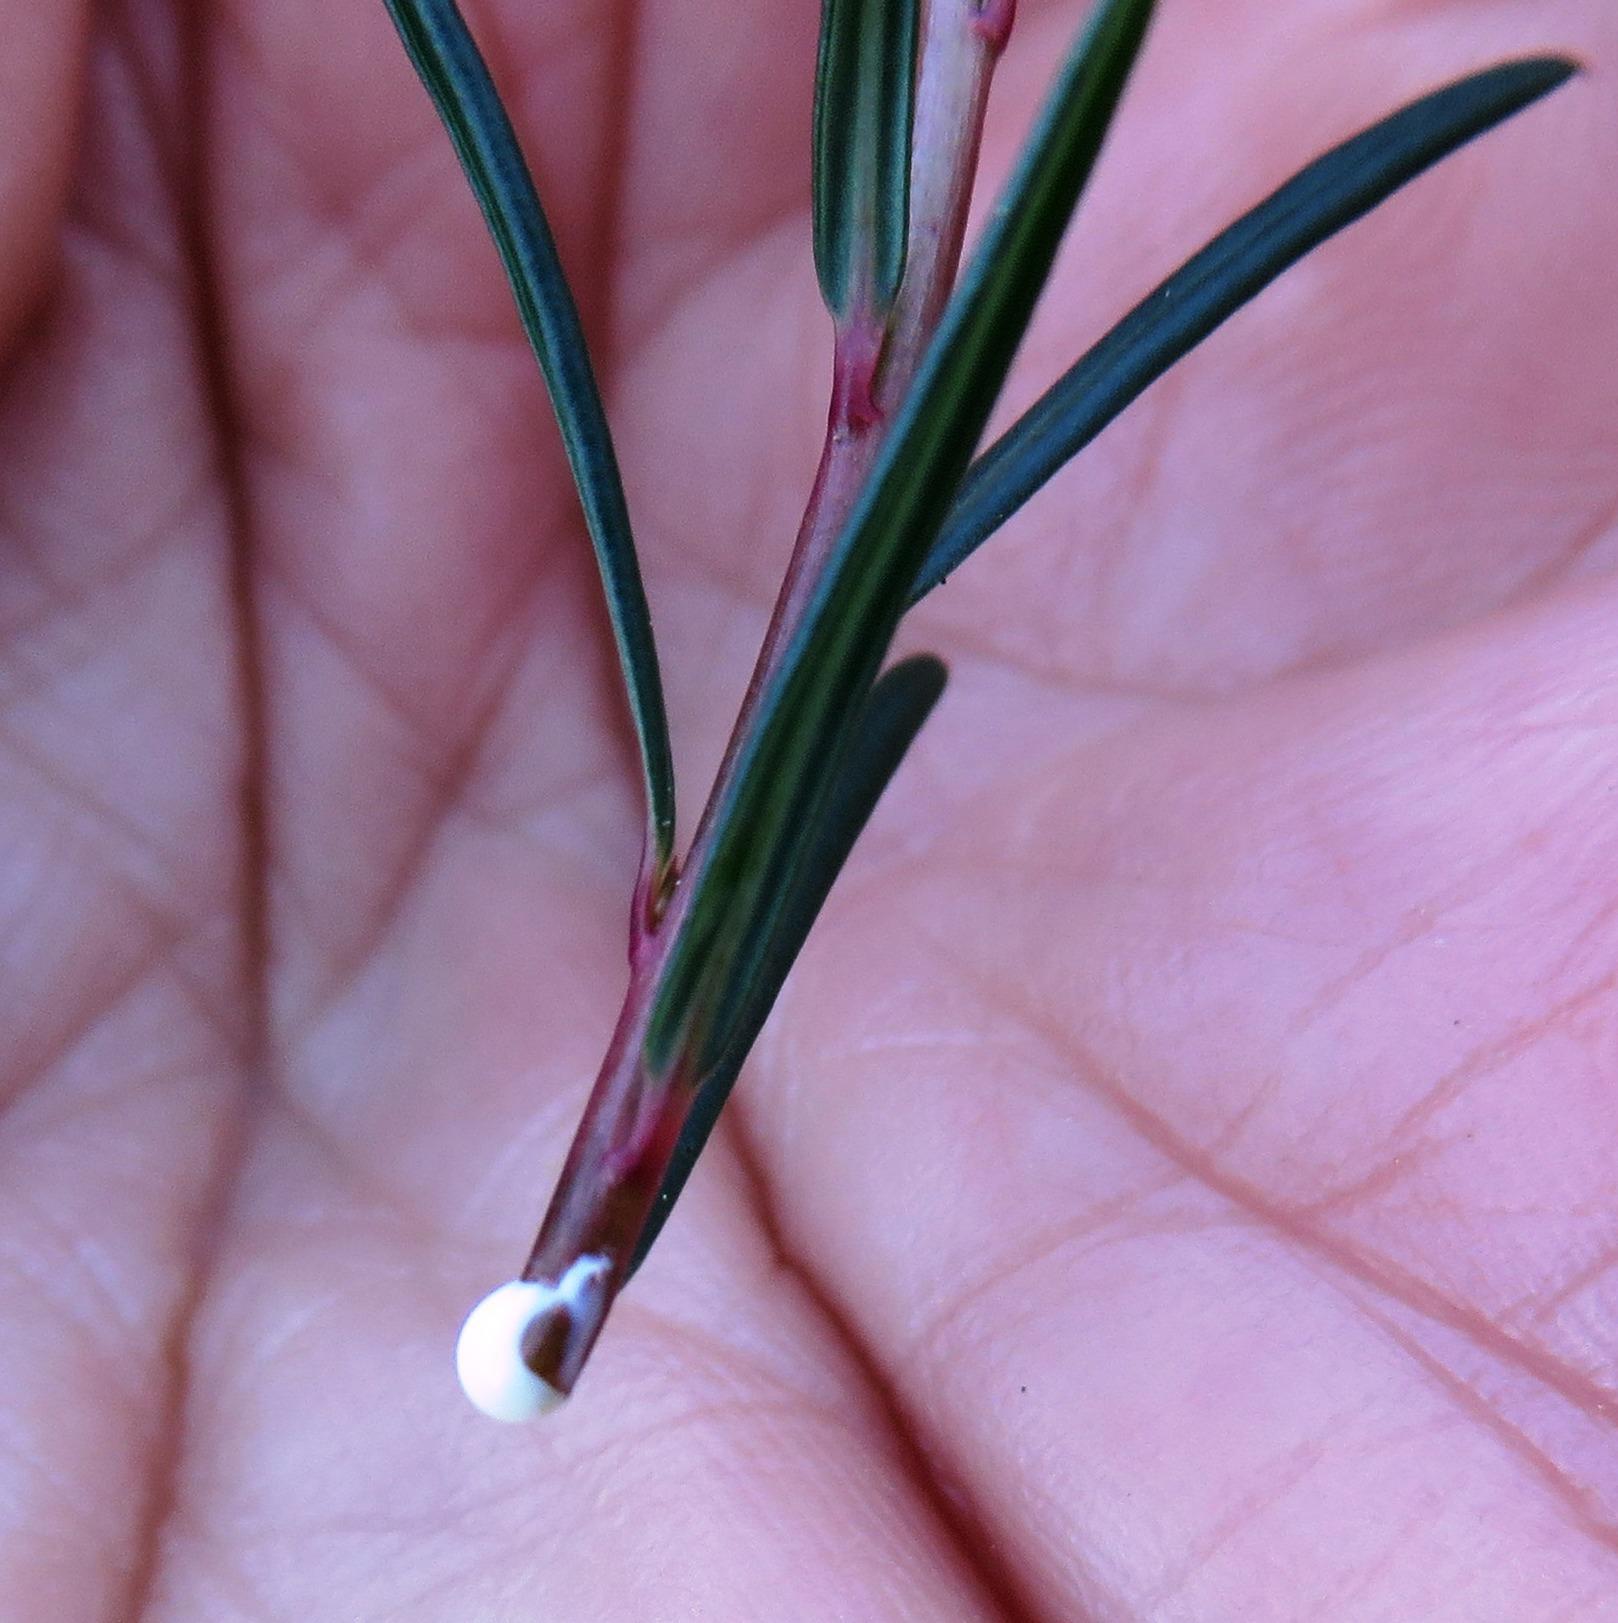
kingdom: Plantae
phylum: Tracheophyta
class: Magnoliopsida
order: Malpighiales
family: Euphorbiaceae
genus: Euphorbia
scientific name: Euphorbia genistoides
